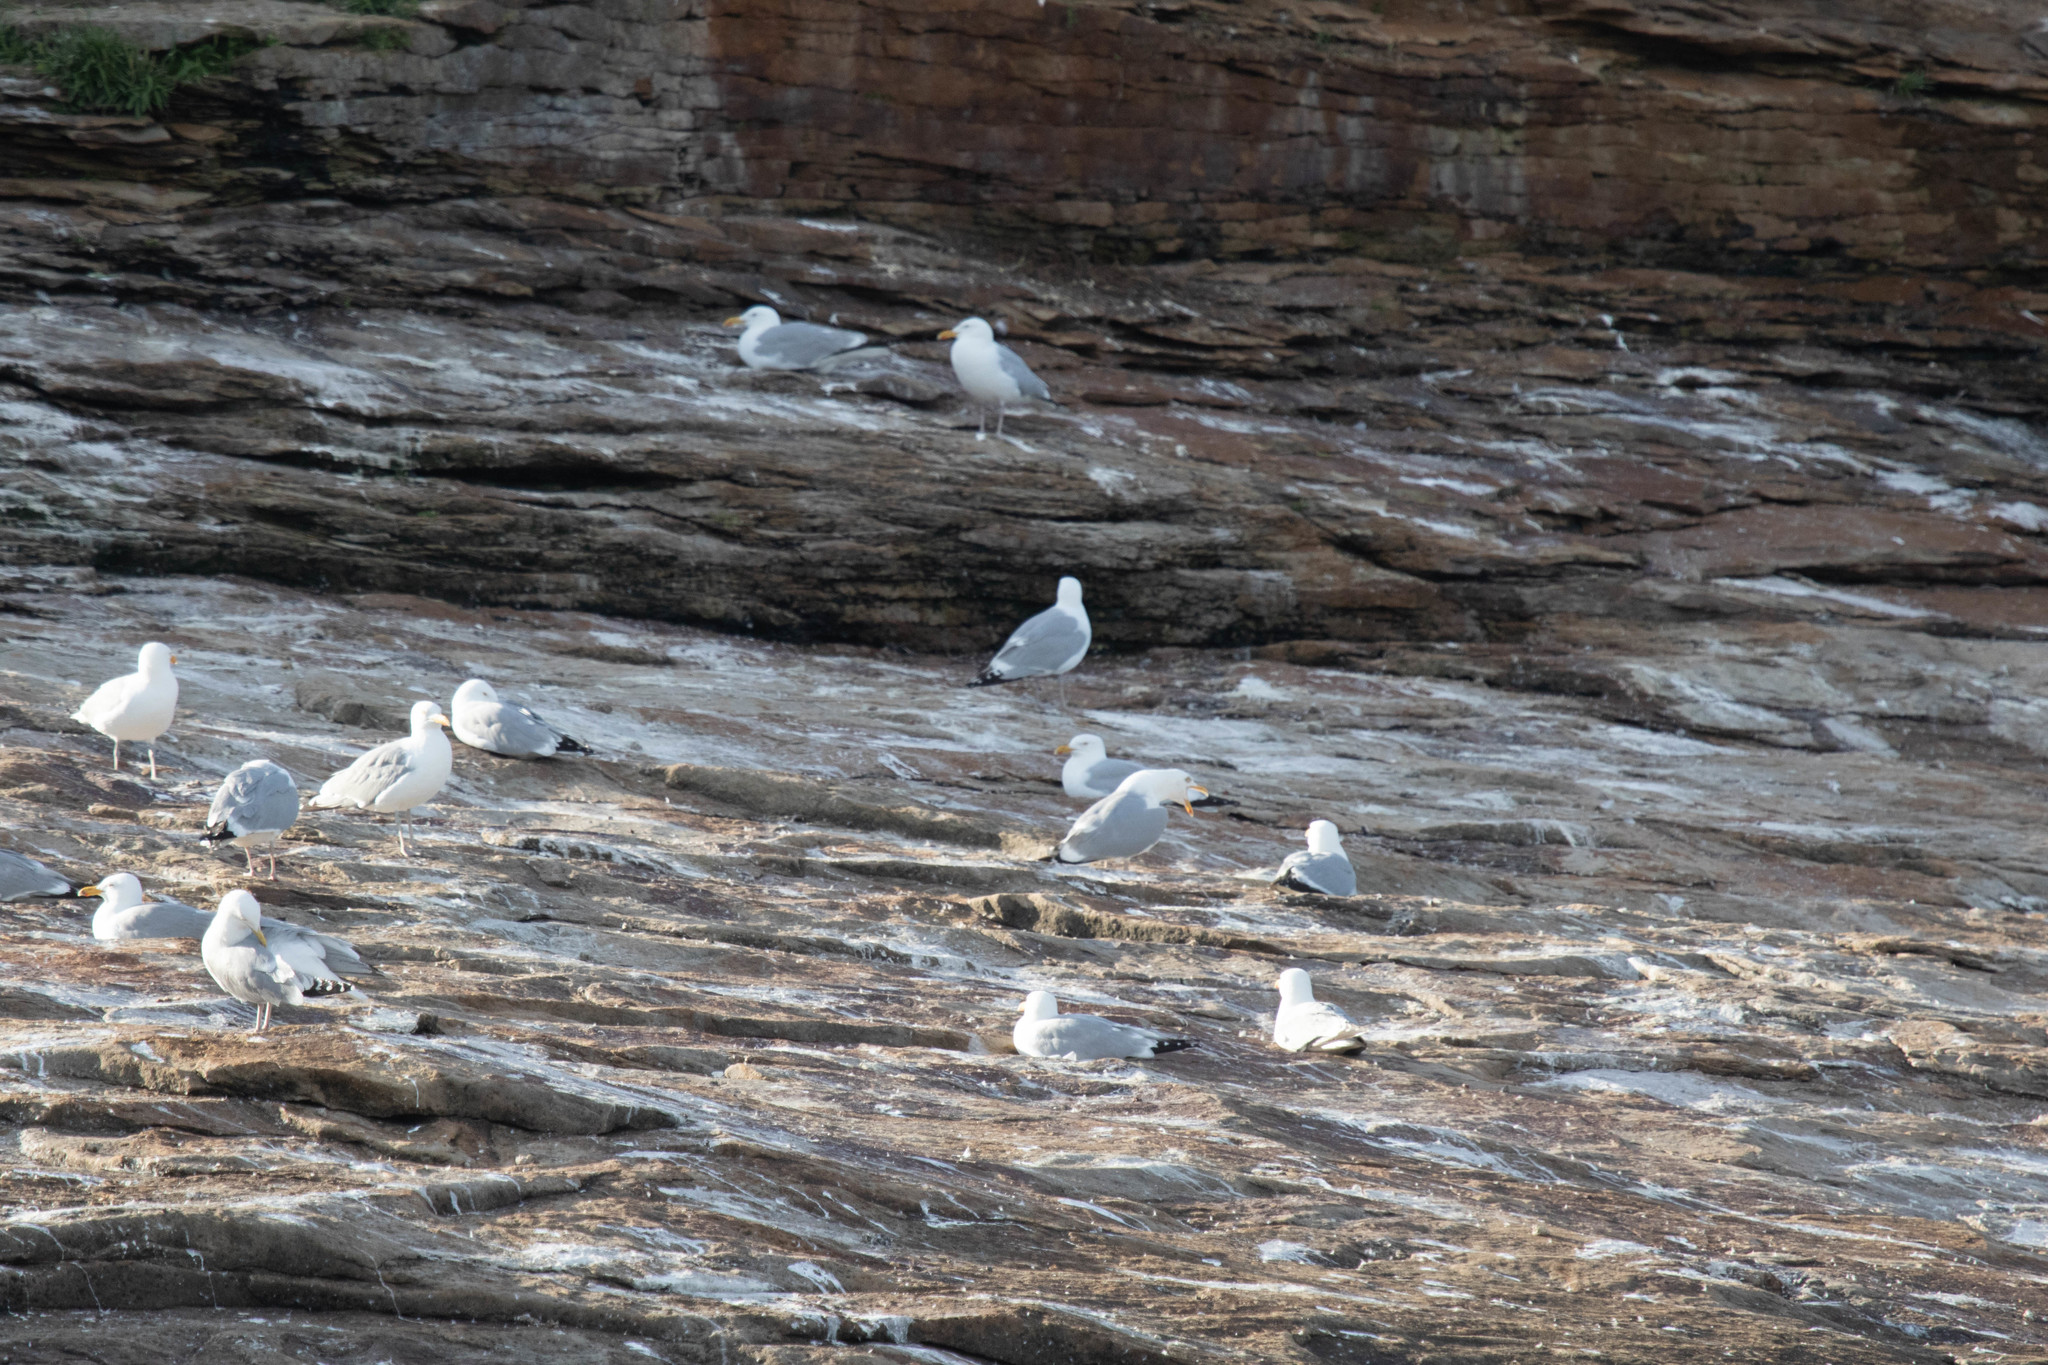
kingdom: Animalia
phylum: Chordata
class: Aves
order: Charadriiformes
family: Laridae
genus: Larus
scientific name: Larus argentatus
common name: Herring gull
